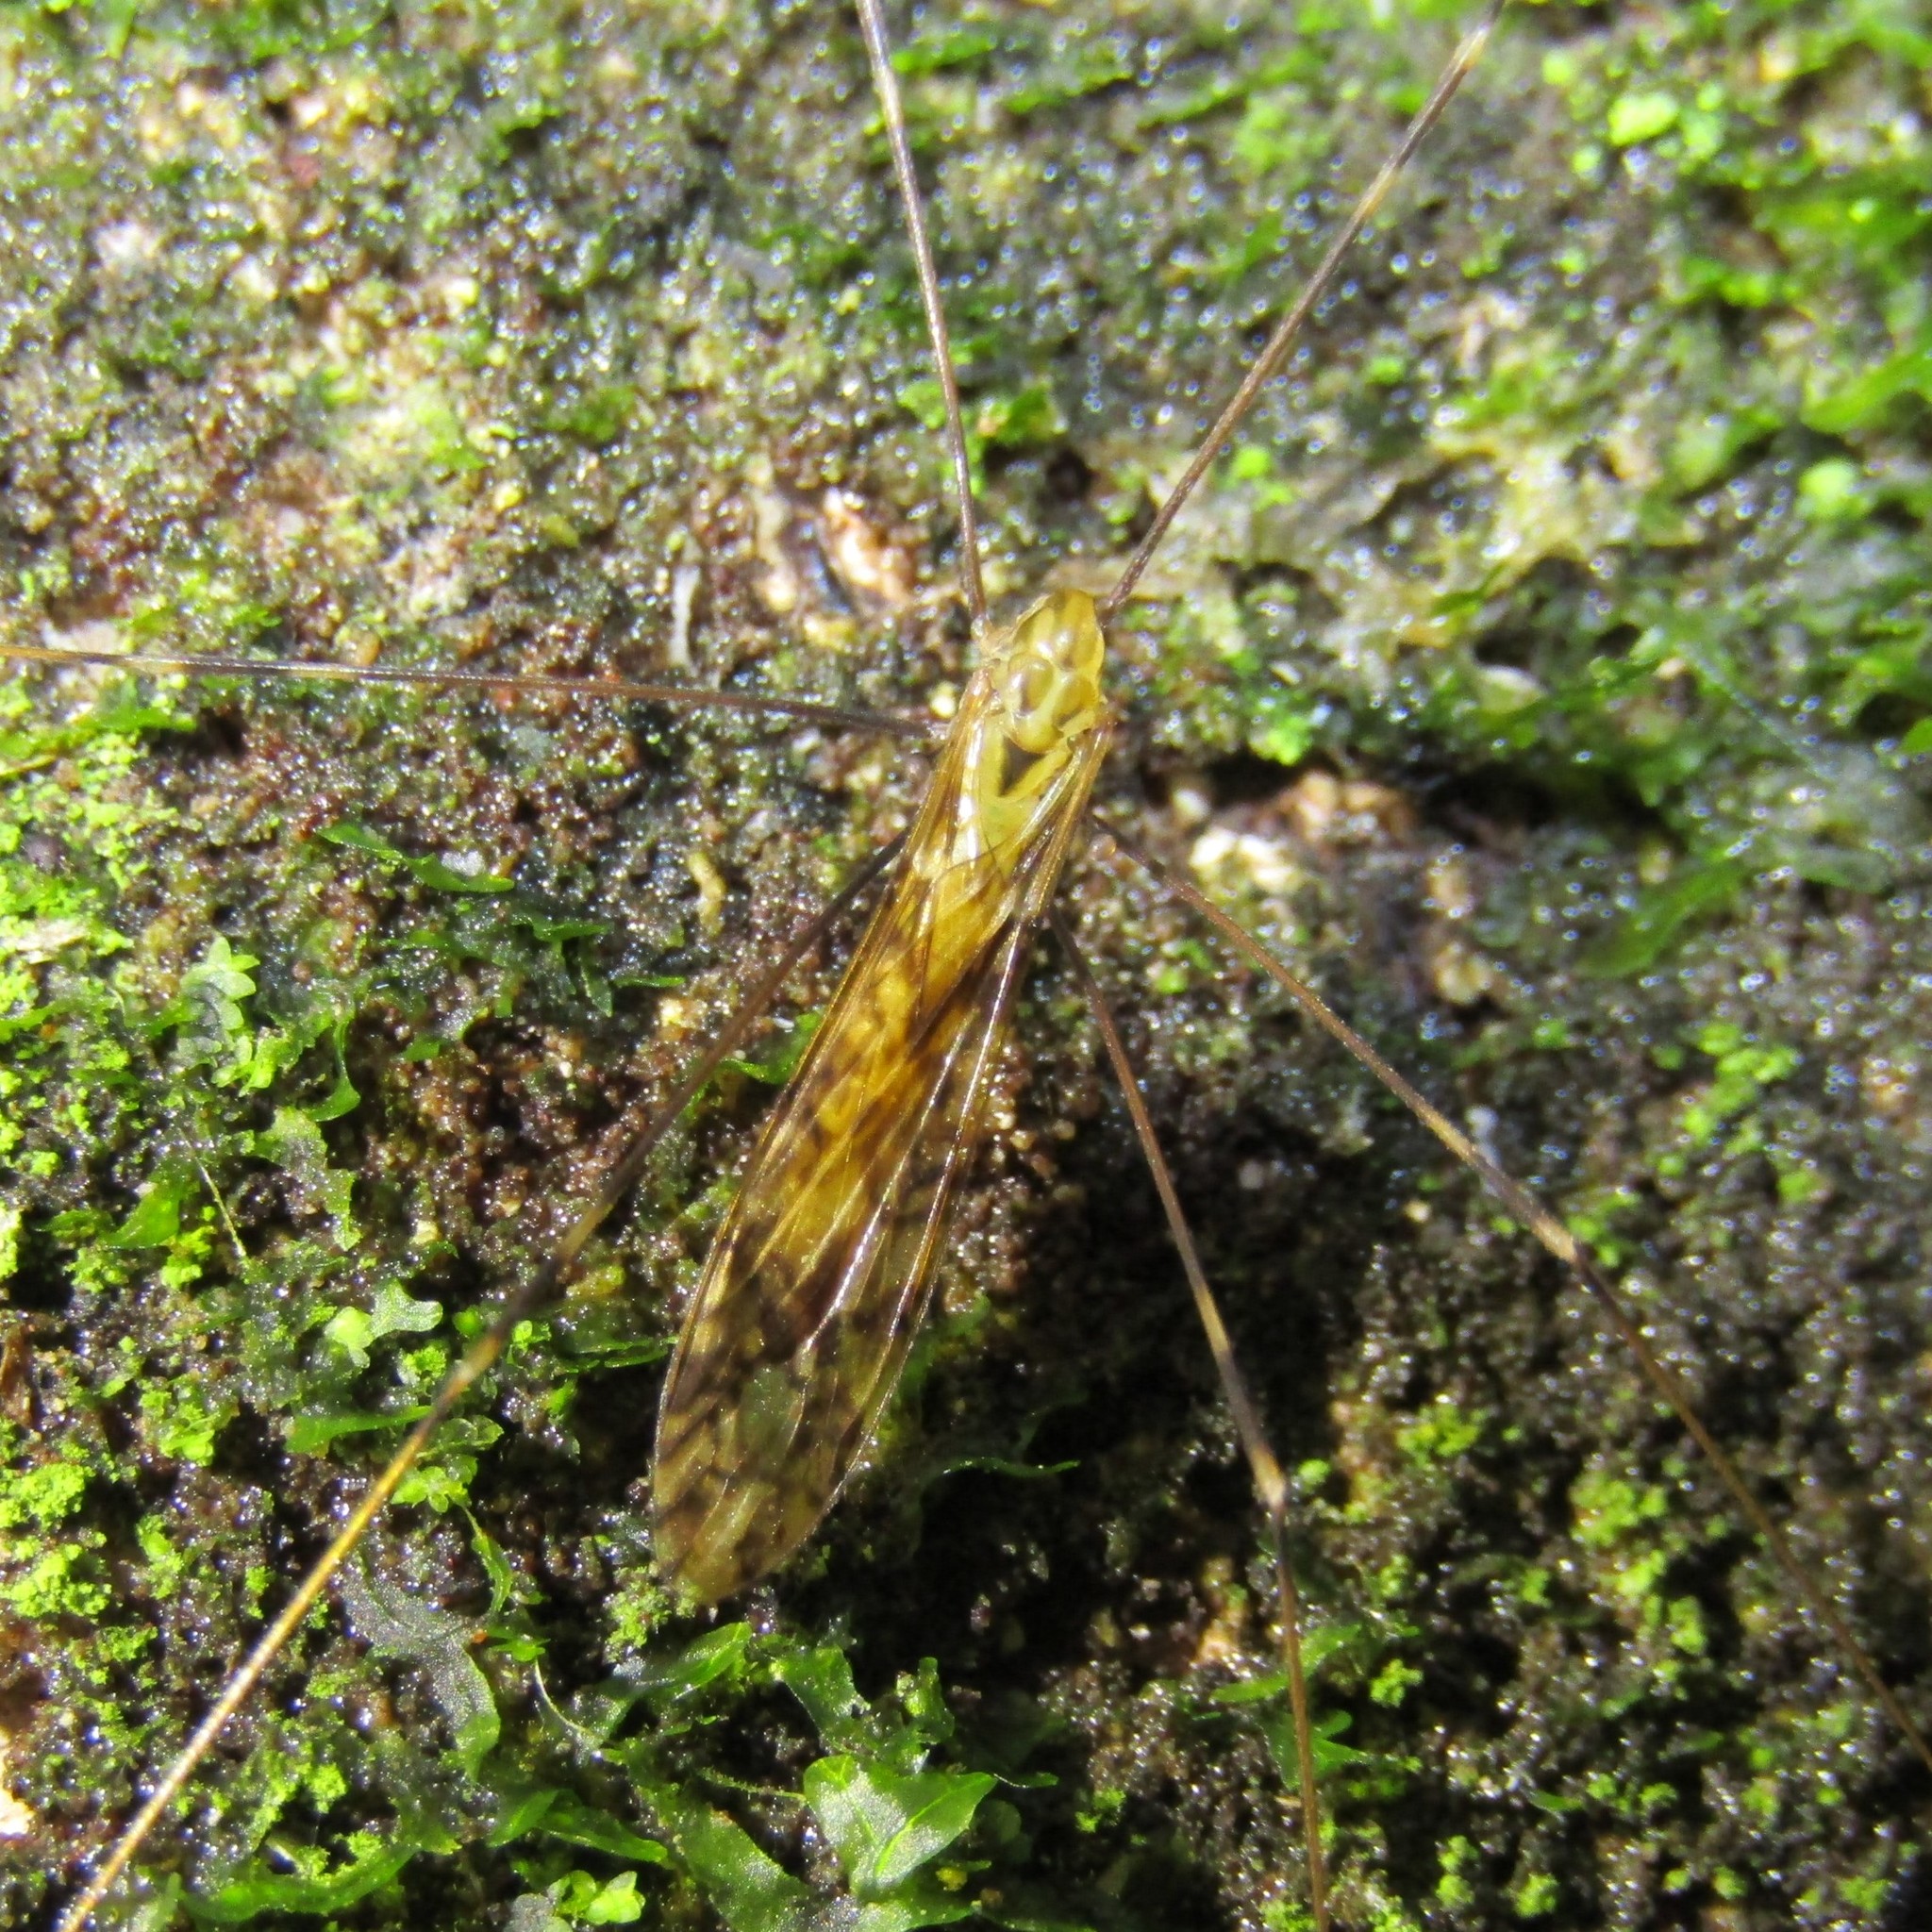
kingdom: Animalia
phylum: Arthropoda
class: Insecta
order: Diptera
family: Limoniidae
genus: Discobola
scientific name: Discobola tessellata
